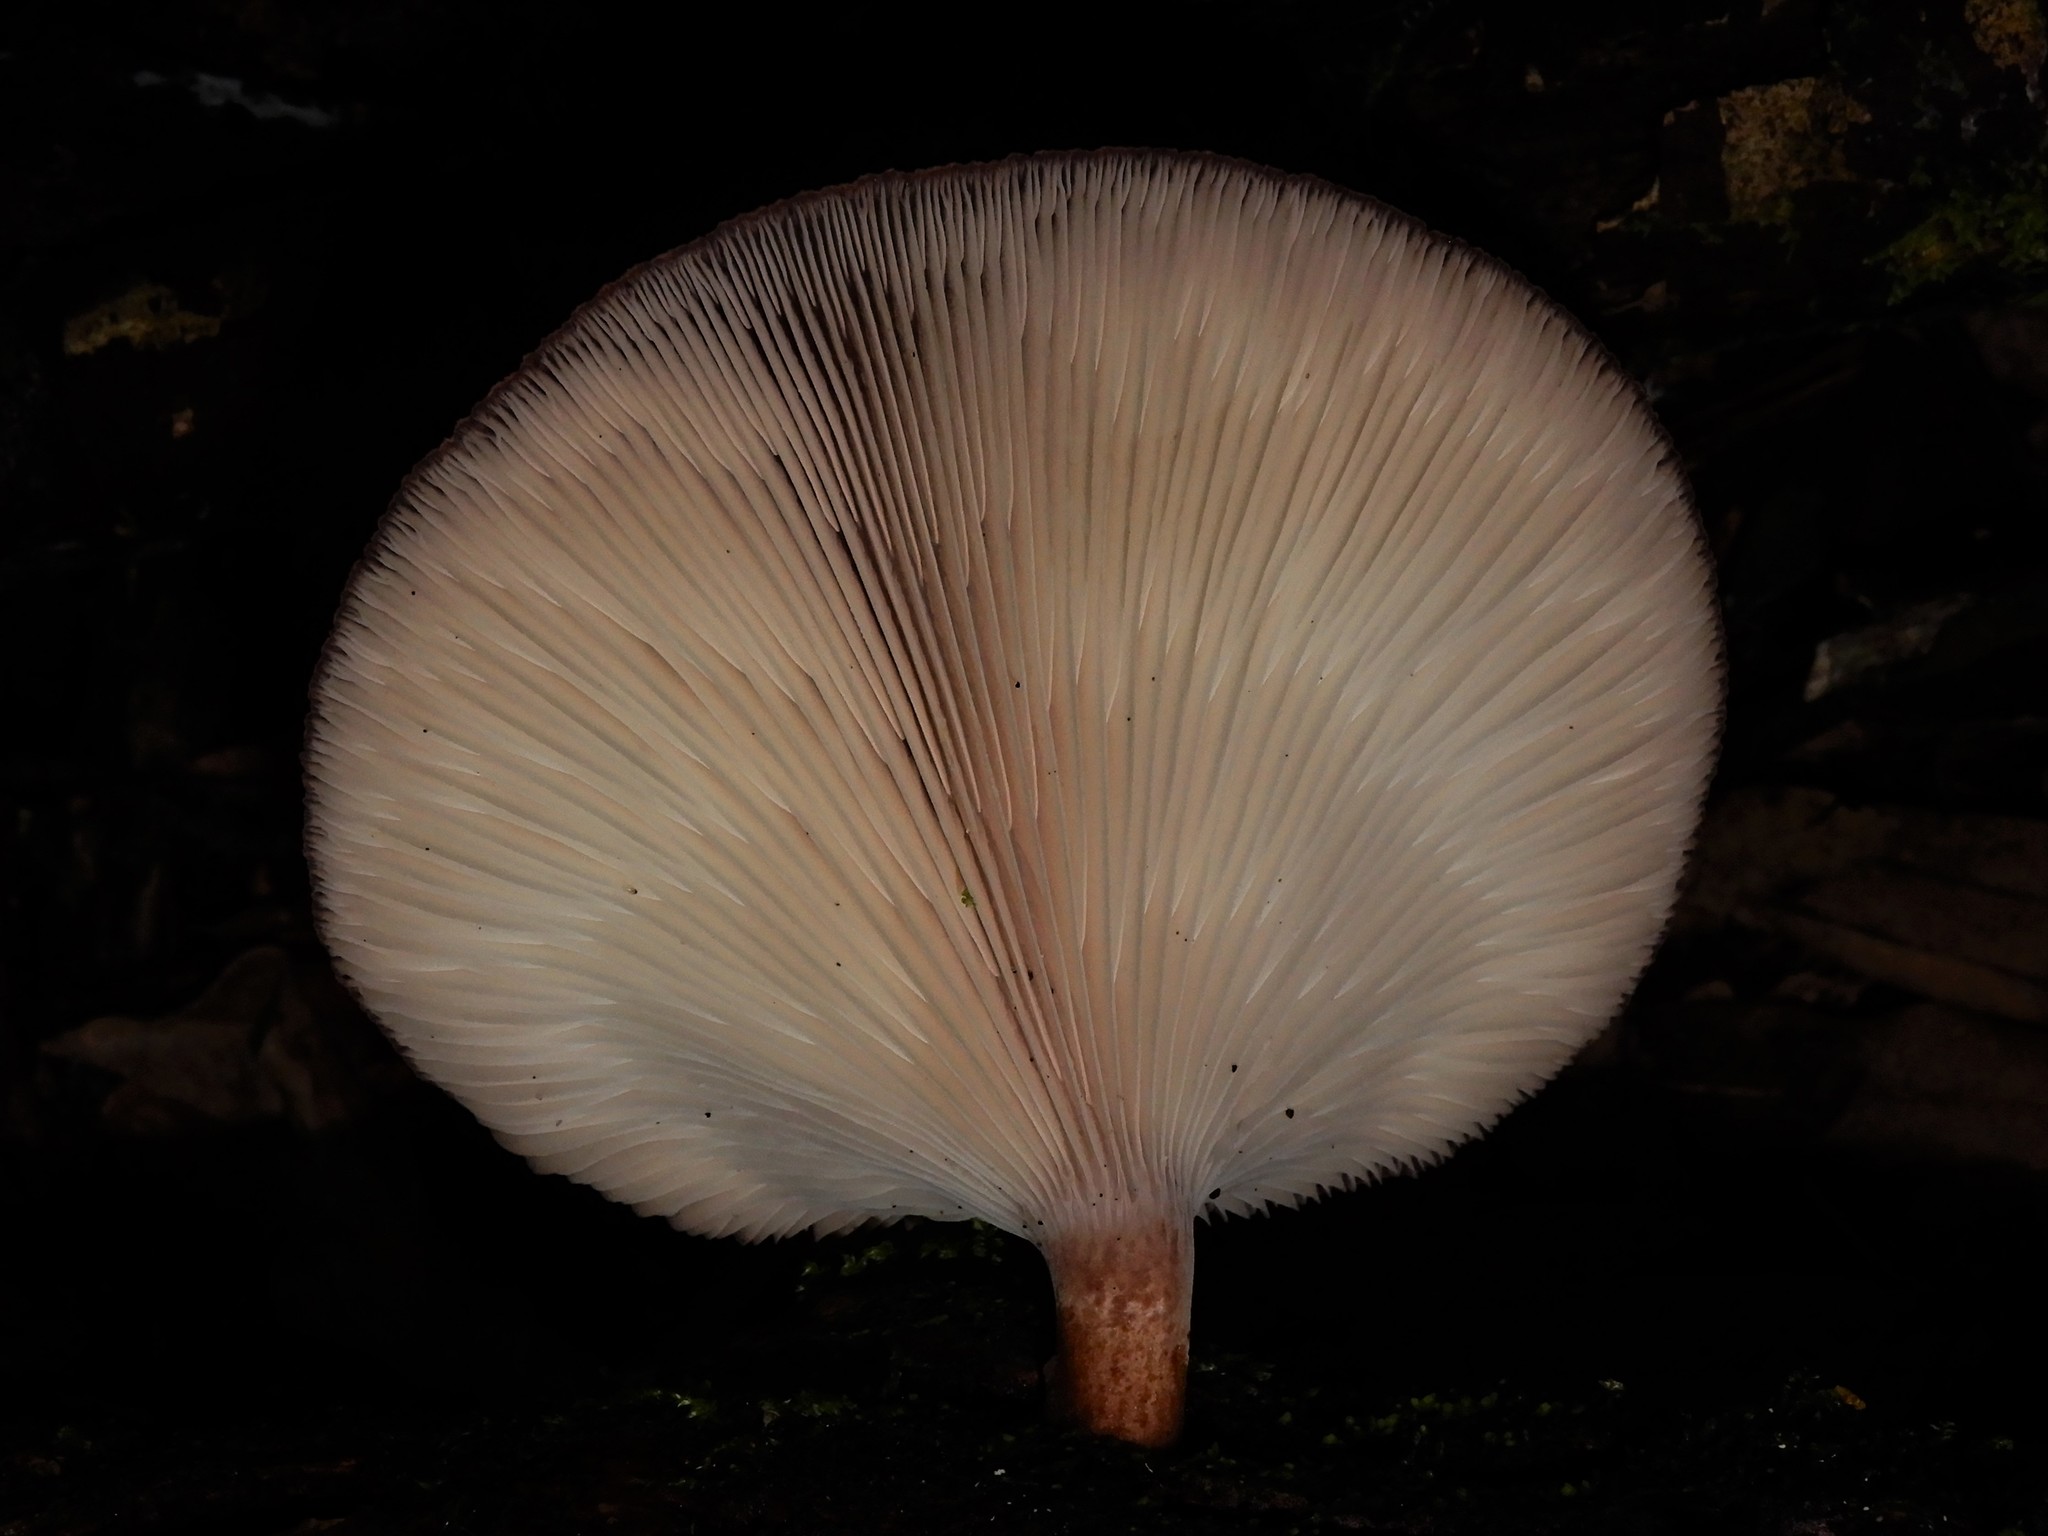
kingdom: Fungi
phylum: Basidiomycota
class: Agaricomycetes
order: Polyporales
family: Panaceae
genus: Panus
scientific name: Panus purpuratus
